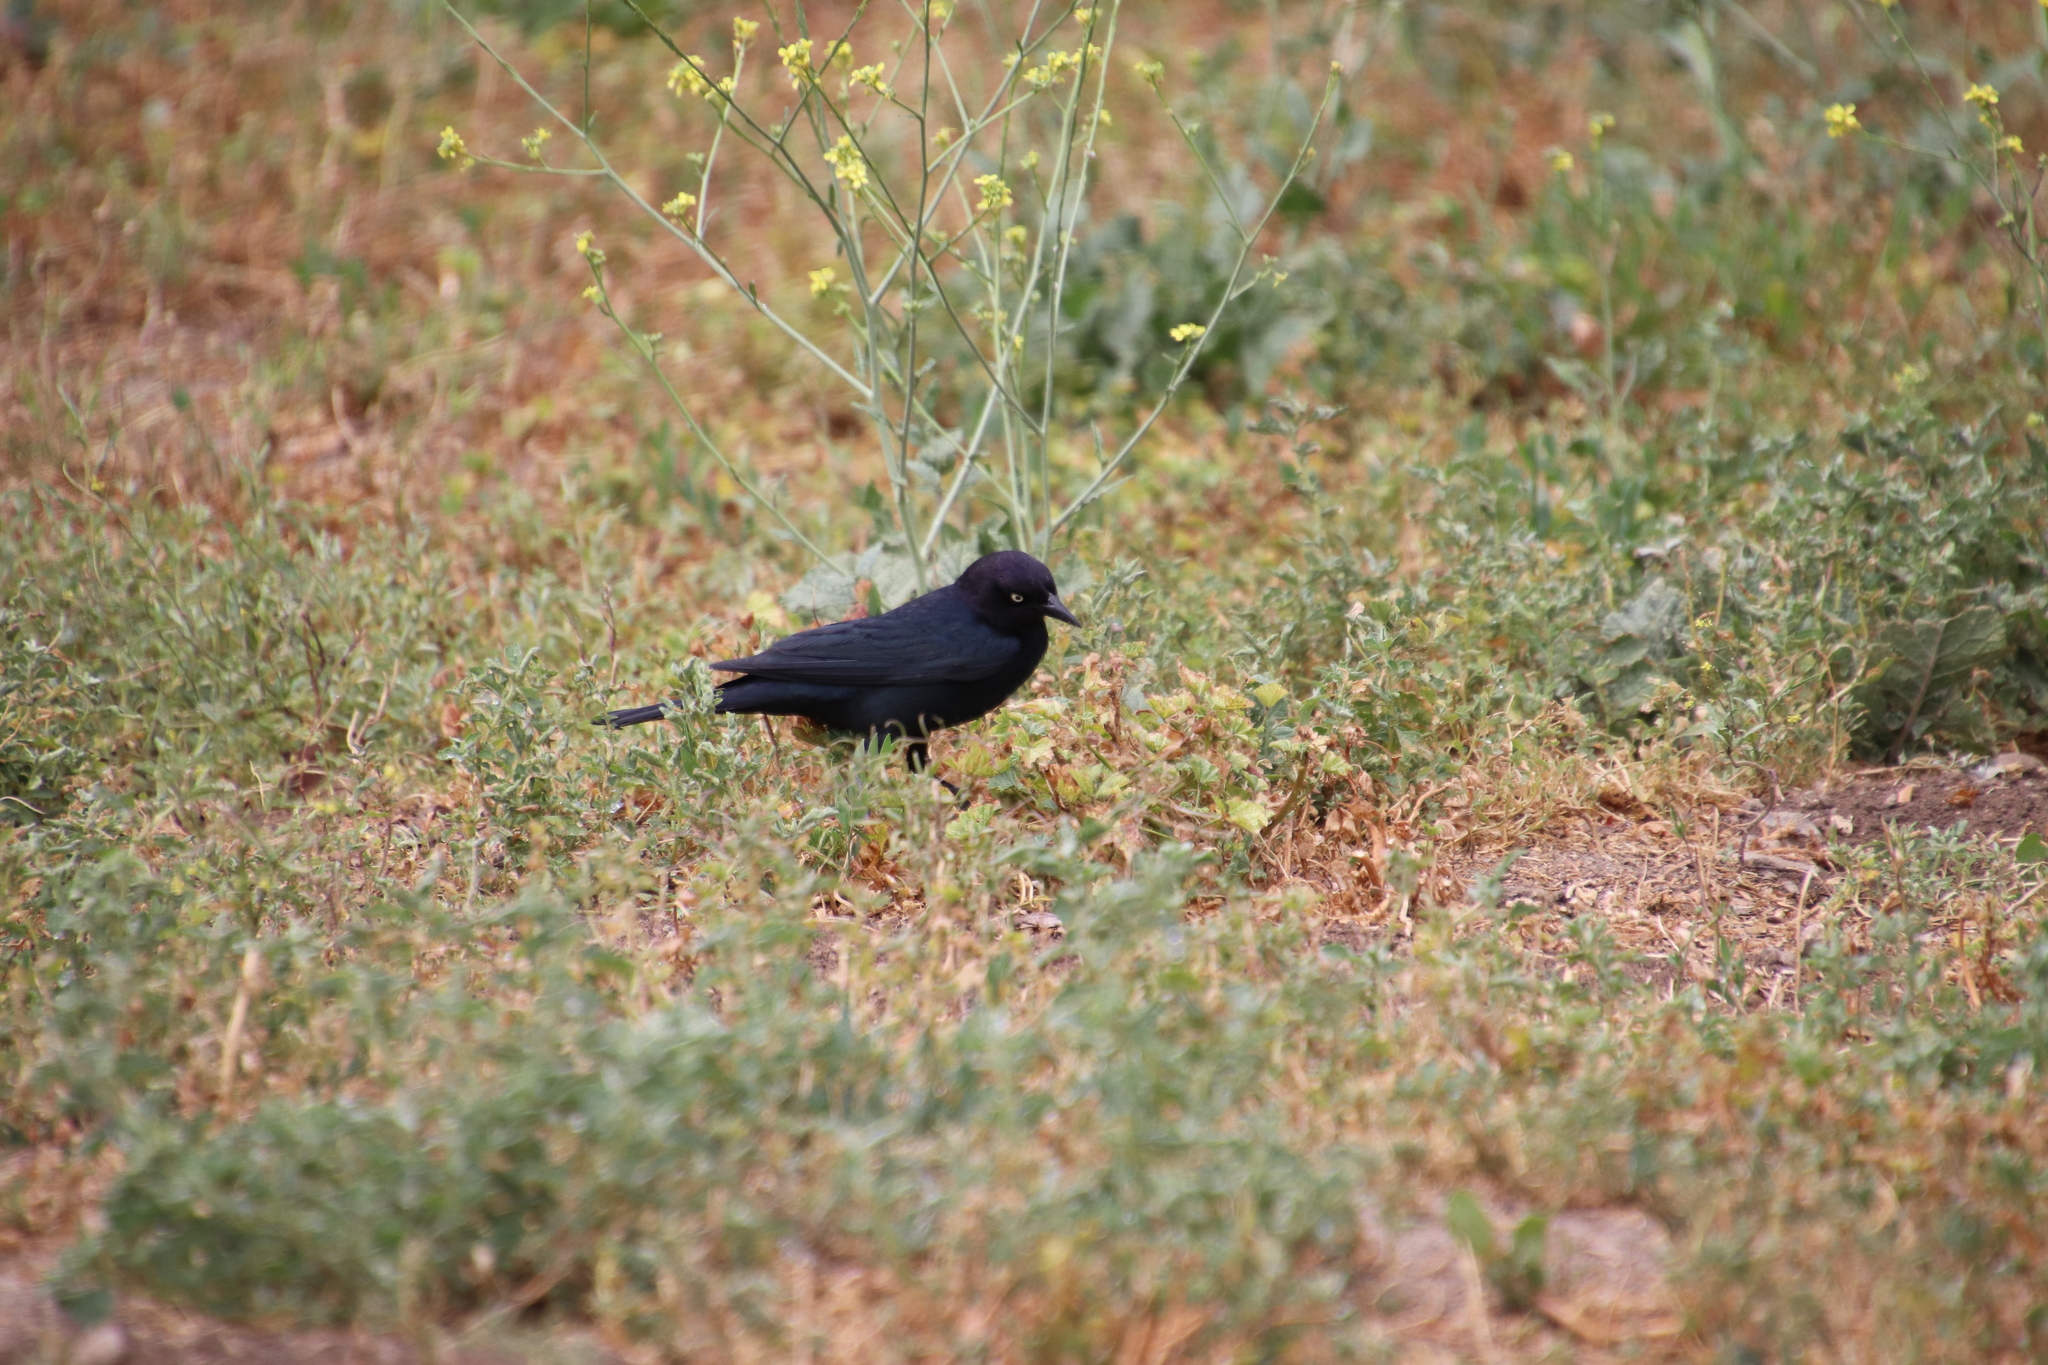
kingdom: Animalia
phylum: Chordata
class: Aves
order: Passeriformes
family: Icteridae
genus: Euphagus
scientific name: Euphagus cyanocephalus
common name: Brewer's blackbird
